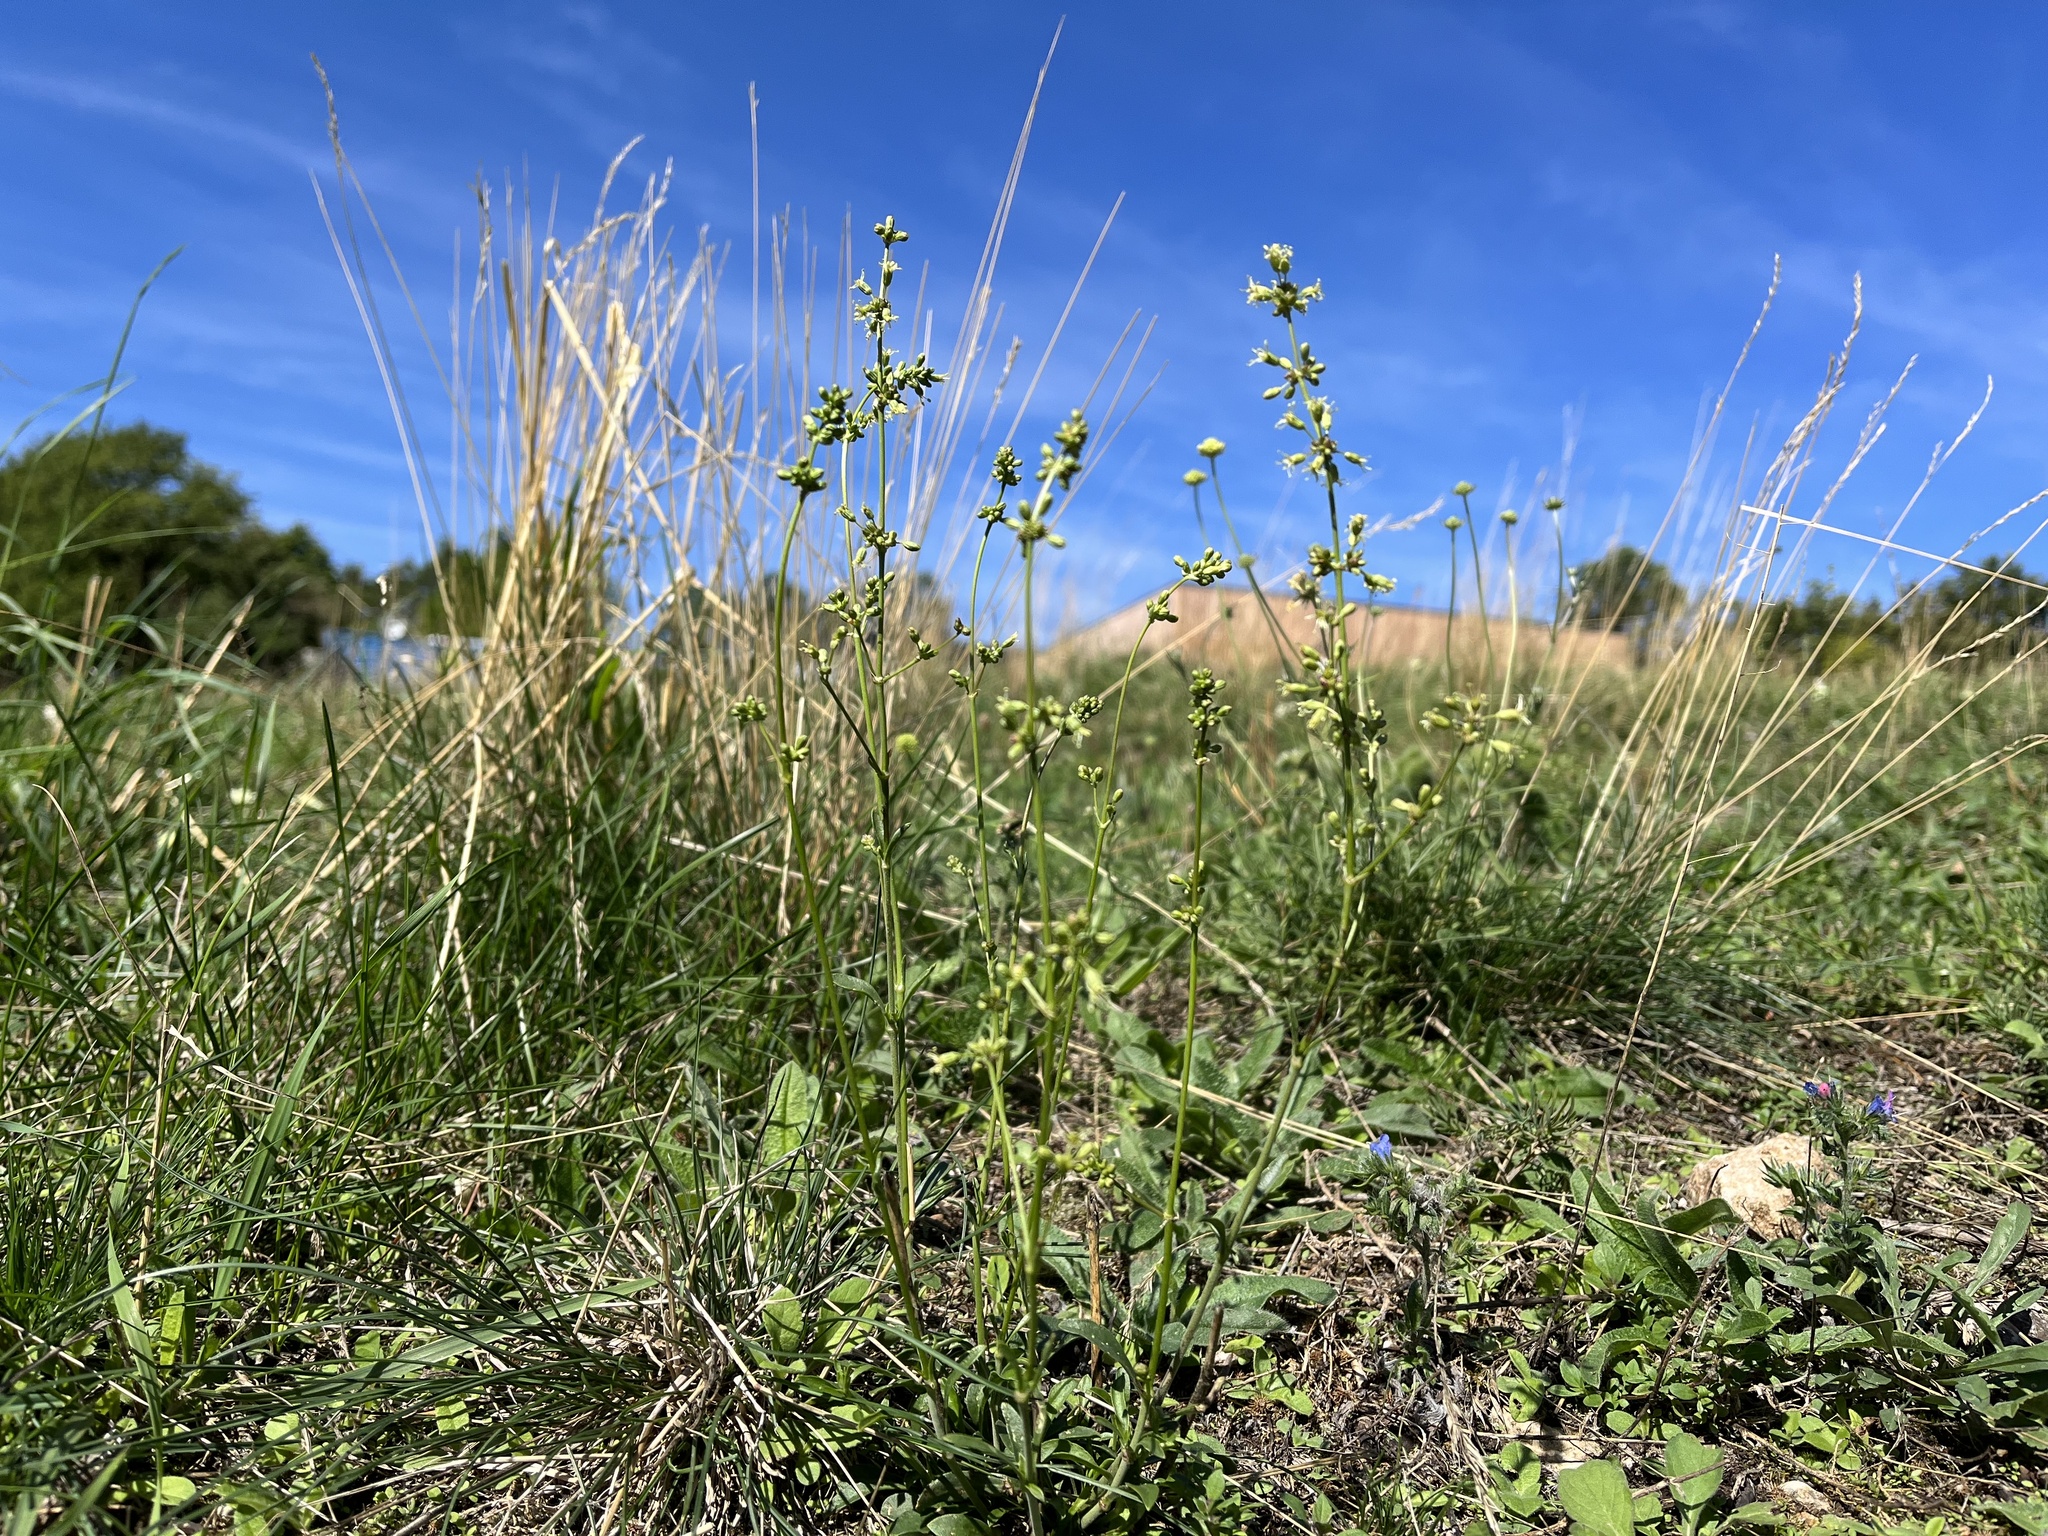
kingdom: Plantae
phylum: Tracheophyta
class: Magnoliopsida
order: Caryophyllales
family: Caryophyllaceae
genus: Silene
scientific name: Silene otites
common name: Spanish catchfly
